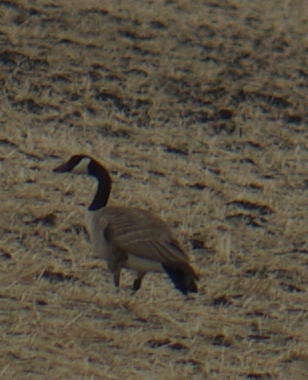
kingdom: Animalia
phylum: Chordata
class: Aves
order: Anseriformes
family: Anatidae
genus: Branta
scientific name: Branta canadensis
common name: Canada goose
